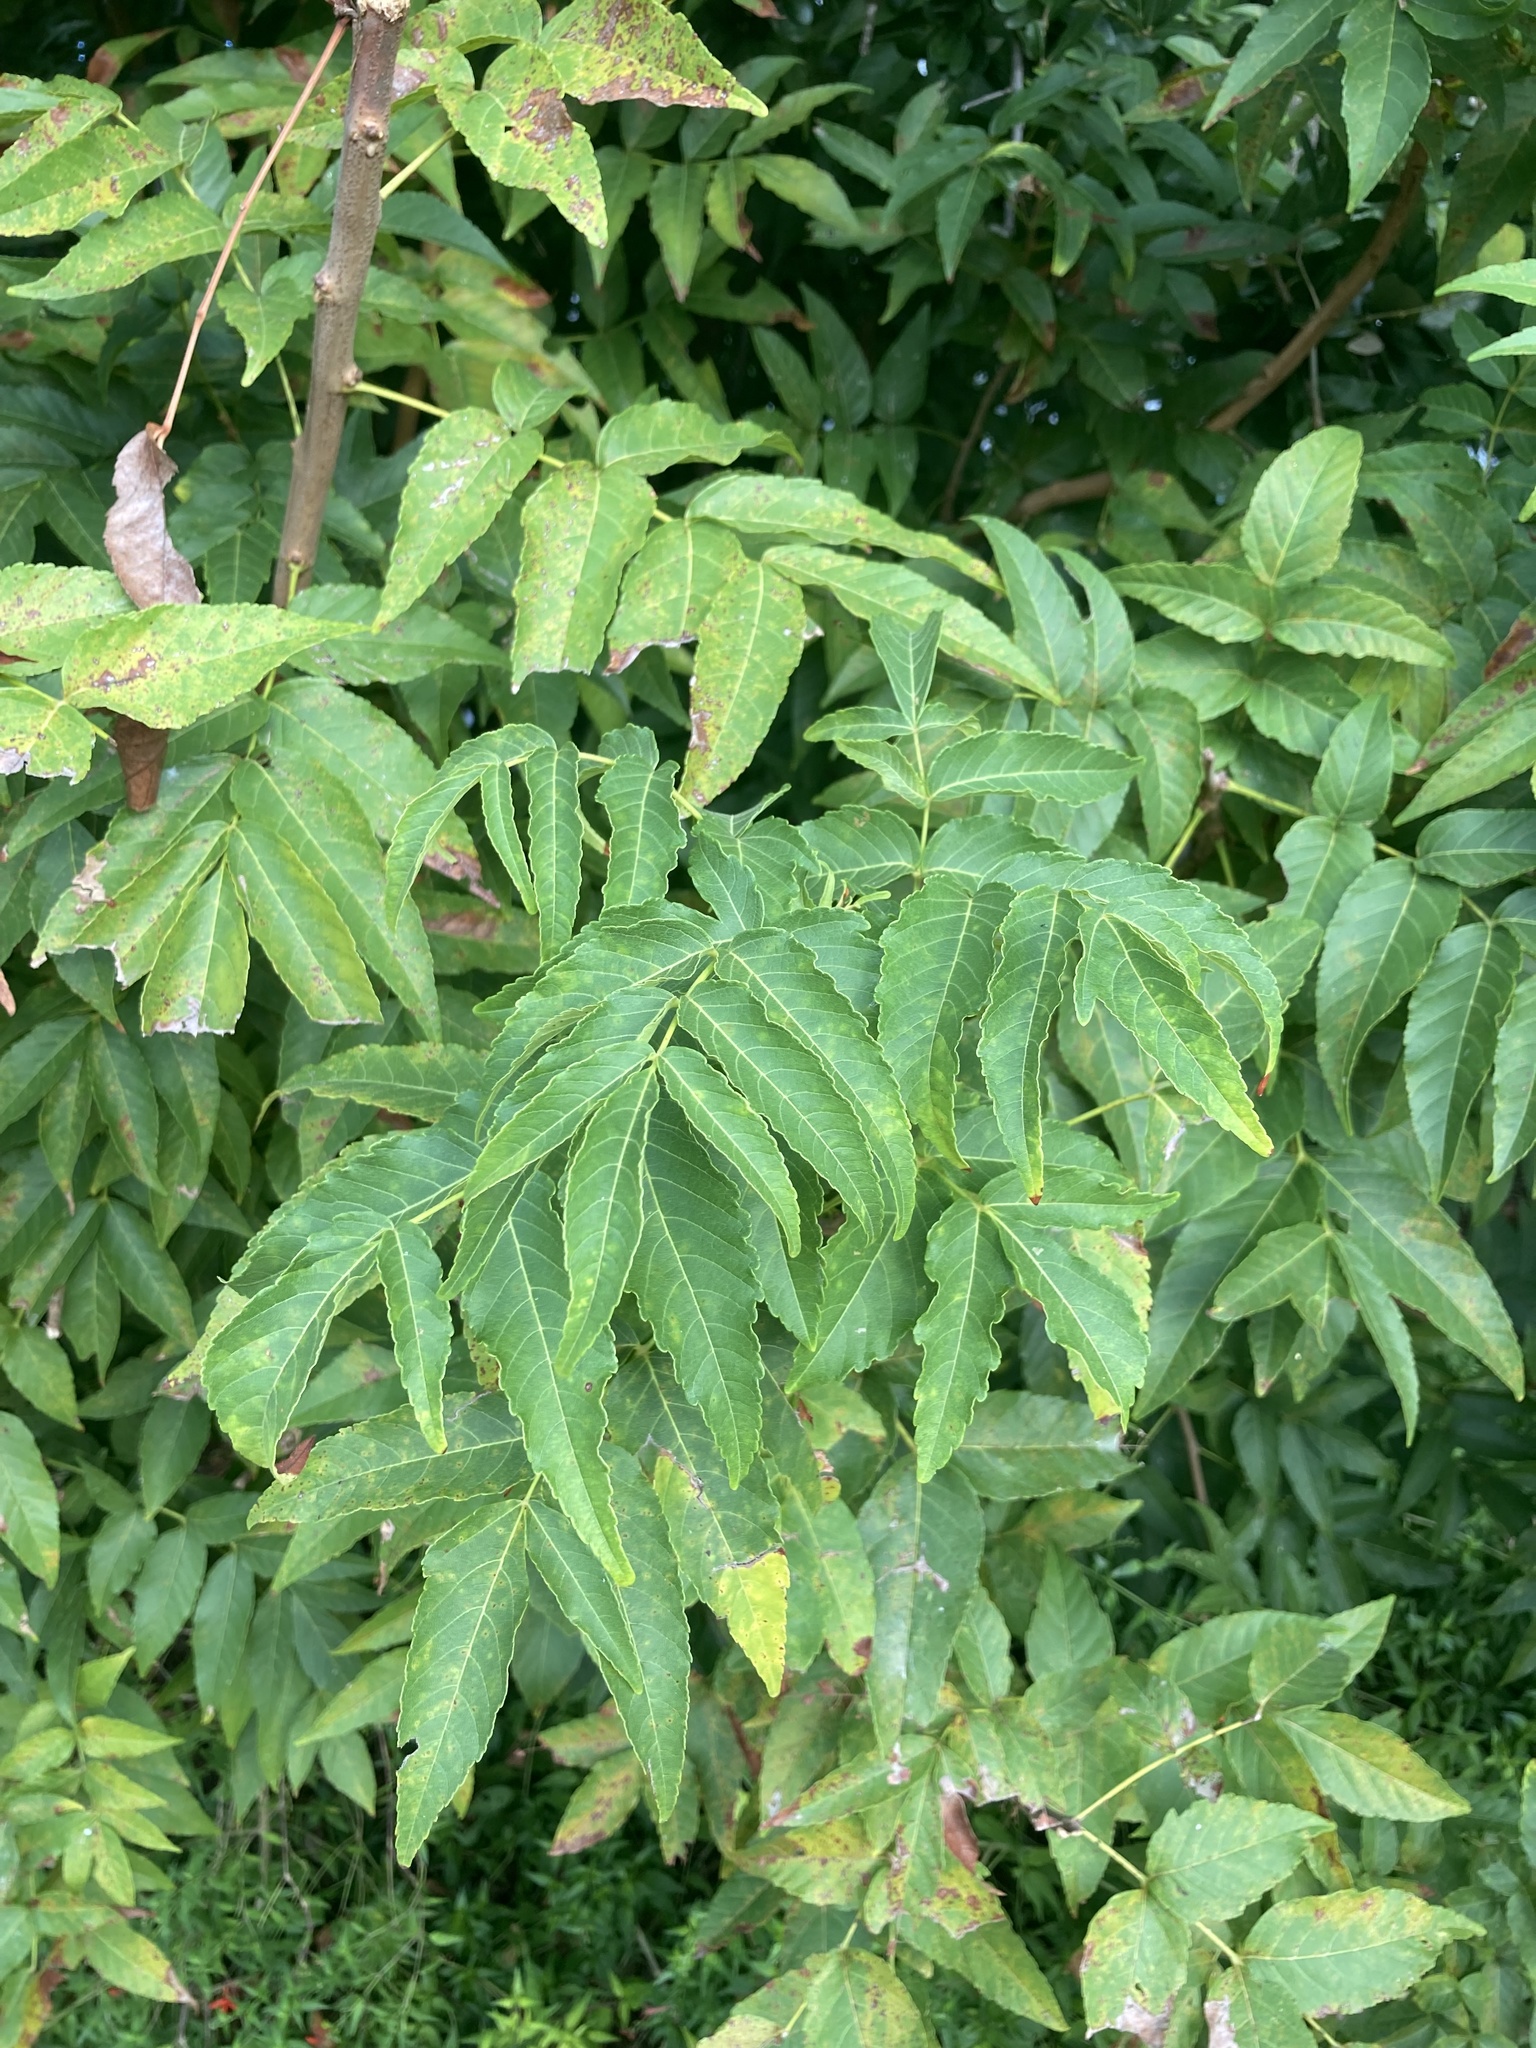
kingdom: Plantae
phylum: Tracheophyta
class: Magnoliopsida
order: Sapindales
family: Sapindaceae
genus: Ungnadia
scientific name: Ungnadia speciosa
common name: Texas-buckeye
